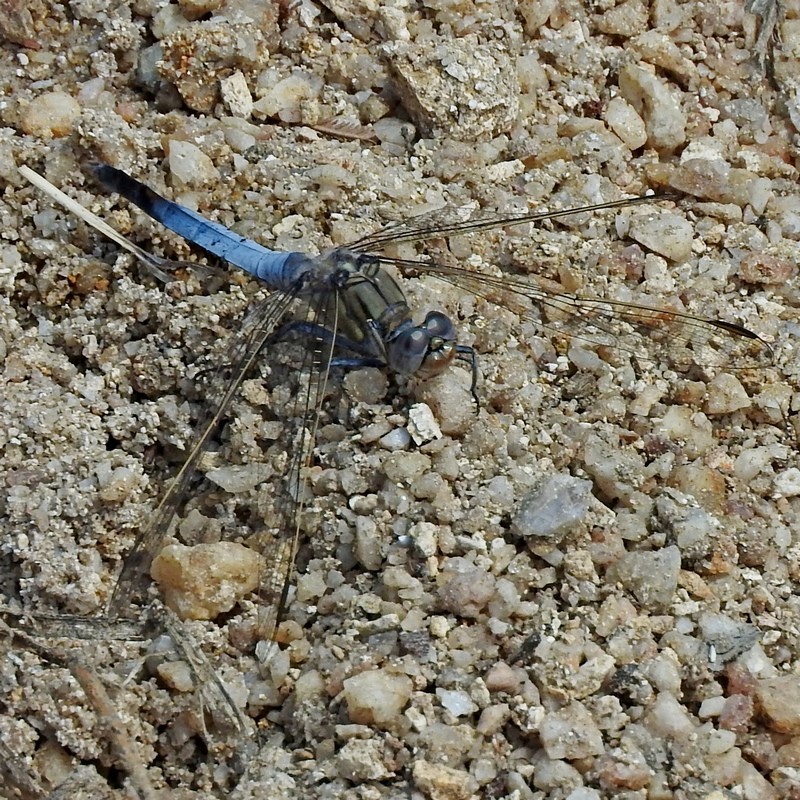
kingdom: Animalia
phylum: Arthropoda
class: Insecta
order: Odonata
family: Libellulidae
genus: Orthetrum
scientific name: Orthetrum caledonicum
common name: Blue skimmer
